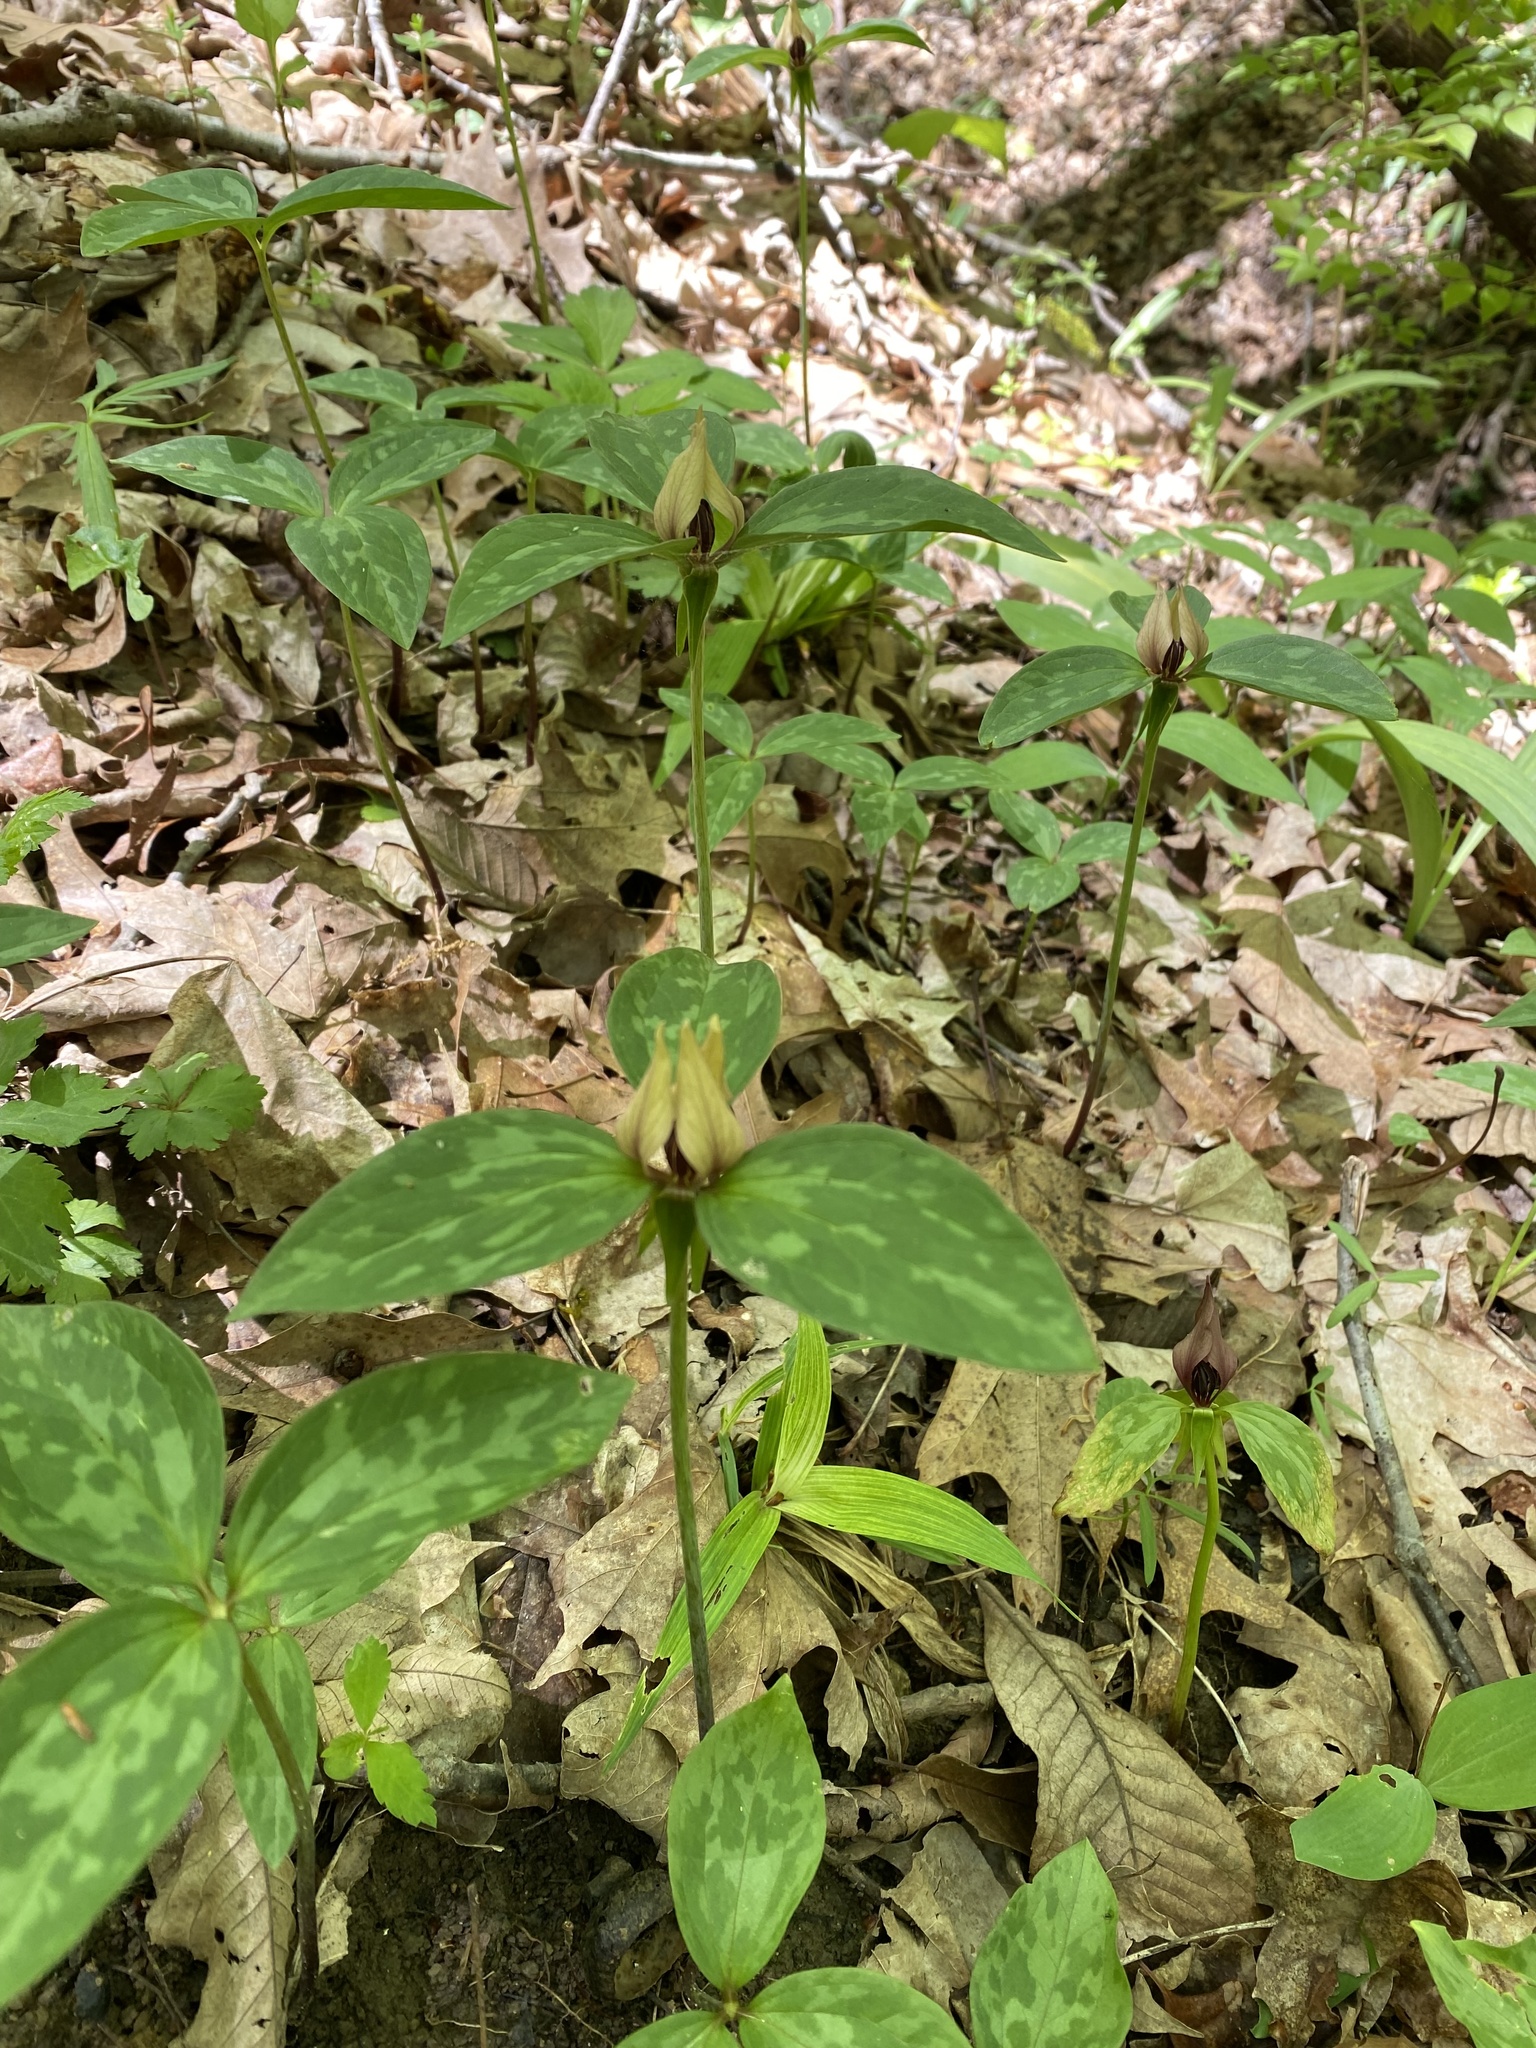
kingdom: Plantae
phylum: Tracheophyta
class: Liliopsida
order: Liliales
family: Melanthiaceae
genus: Trillium
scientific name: Trillium recurvatum
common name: Bloody butcher
